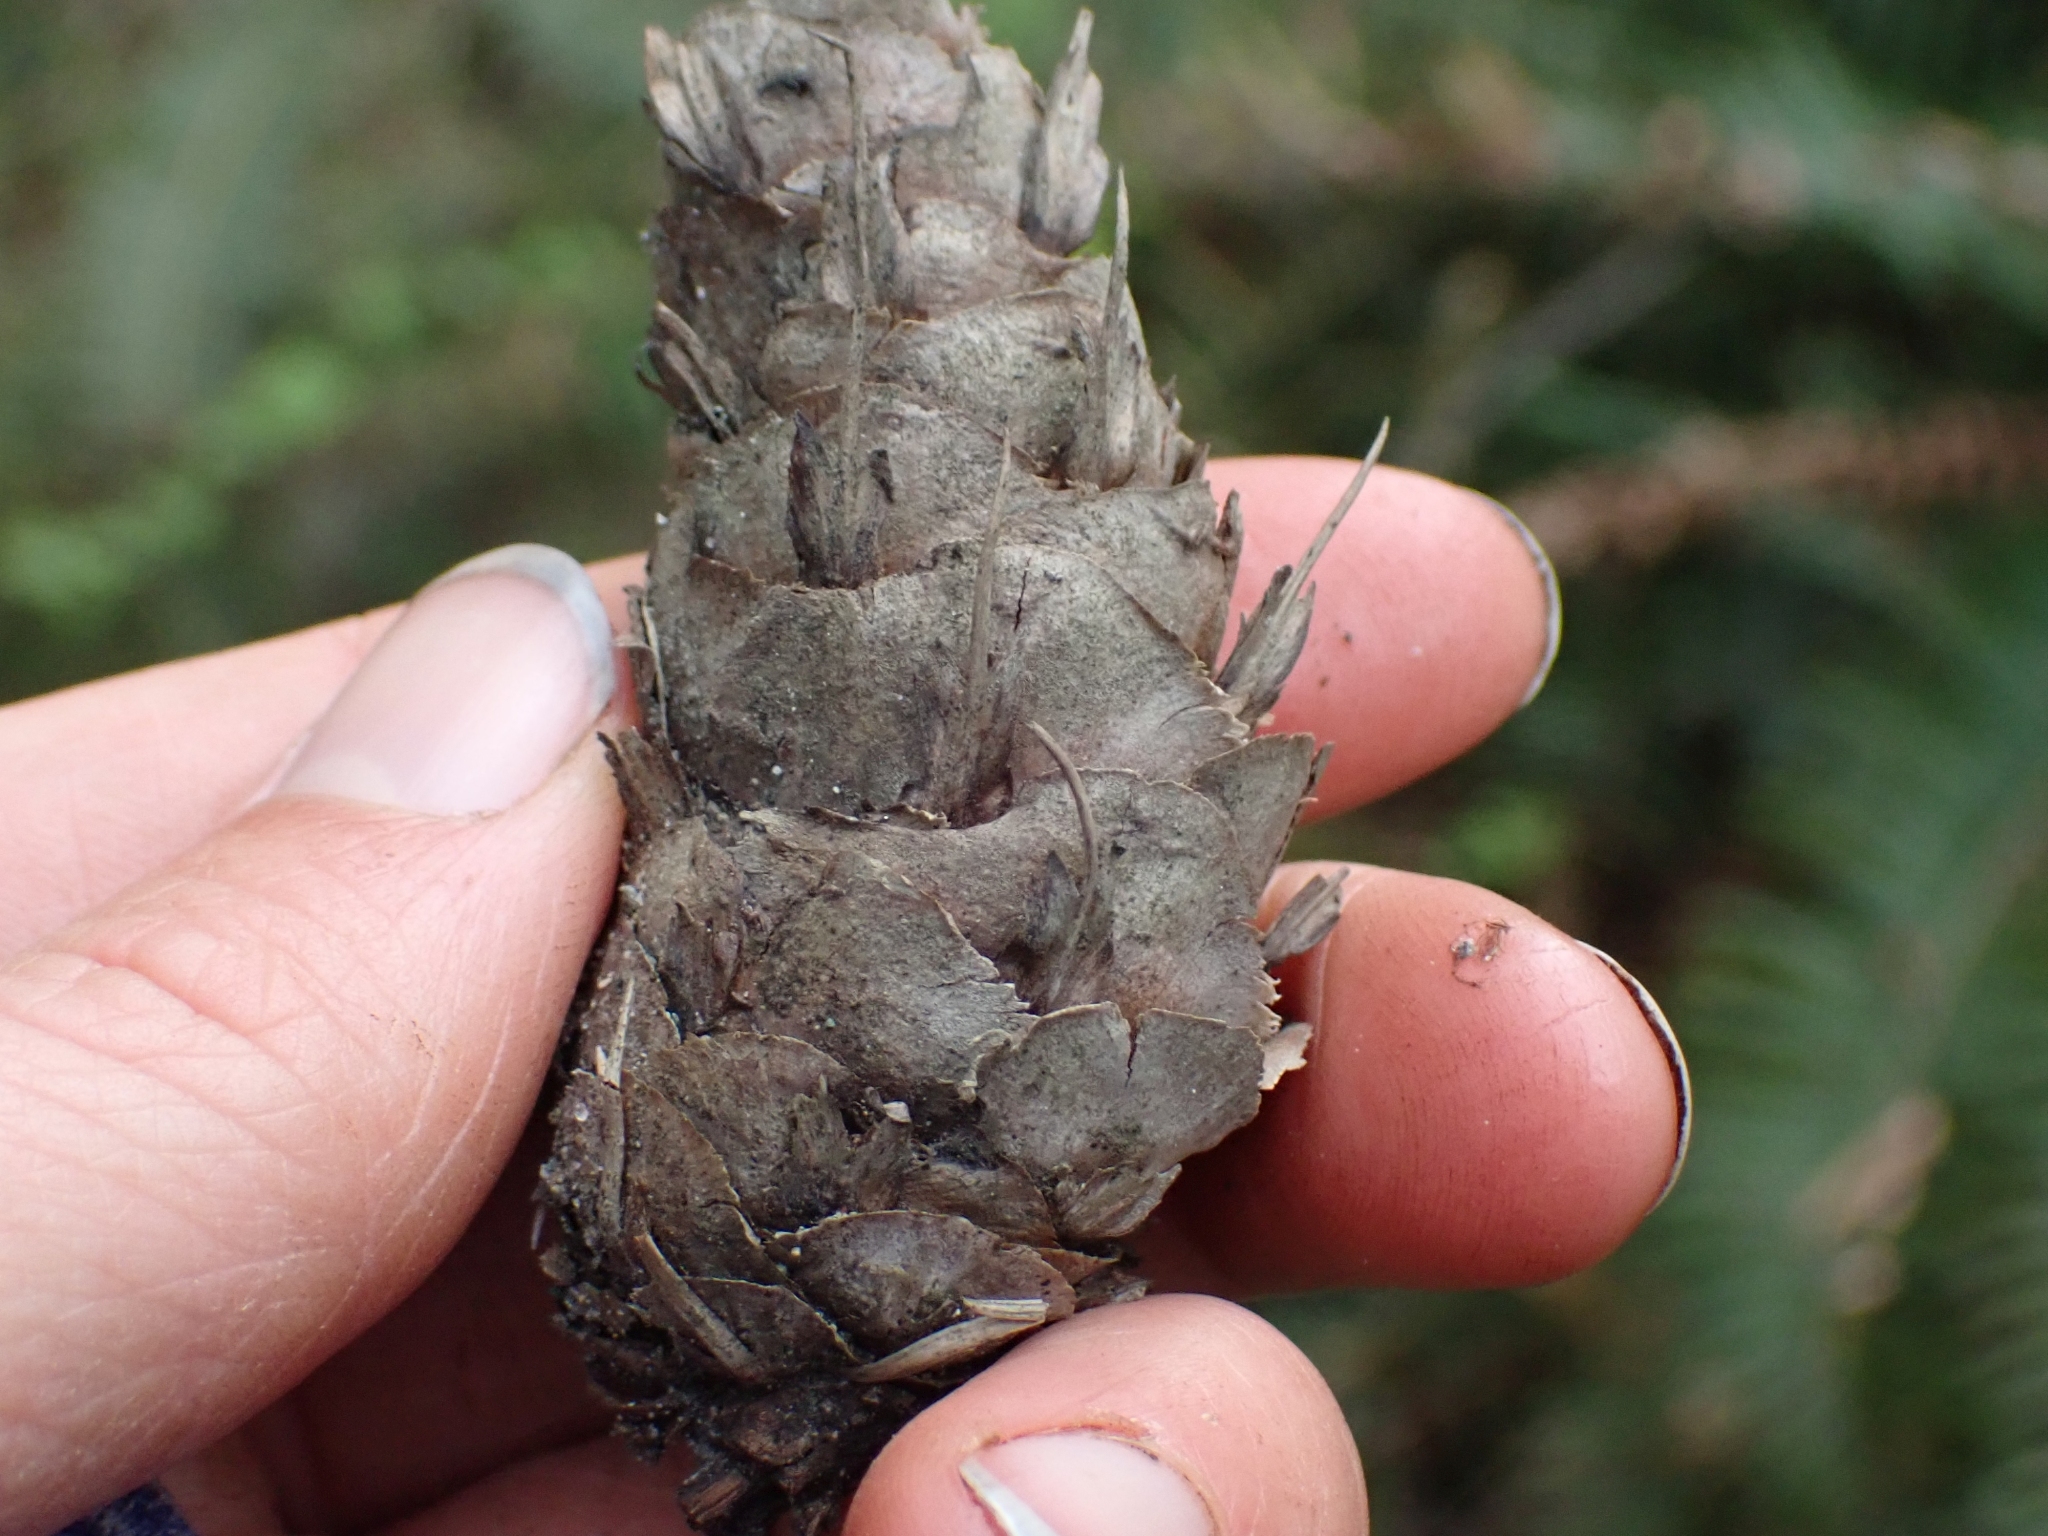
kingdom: Plantae
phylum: Tracheophyta
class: Pinopsida
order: Pinales
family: Pinaceae
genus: Pseudotsuga
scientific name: Pseudotsuga menziesii
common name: Douglas fir
